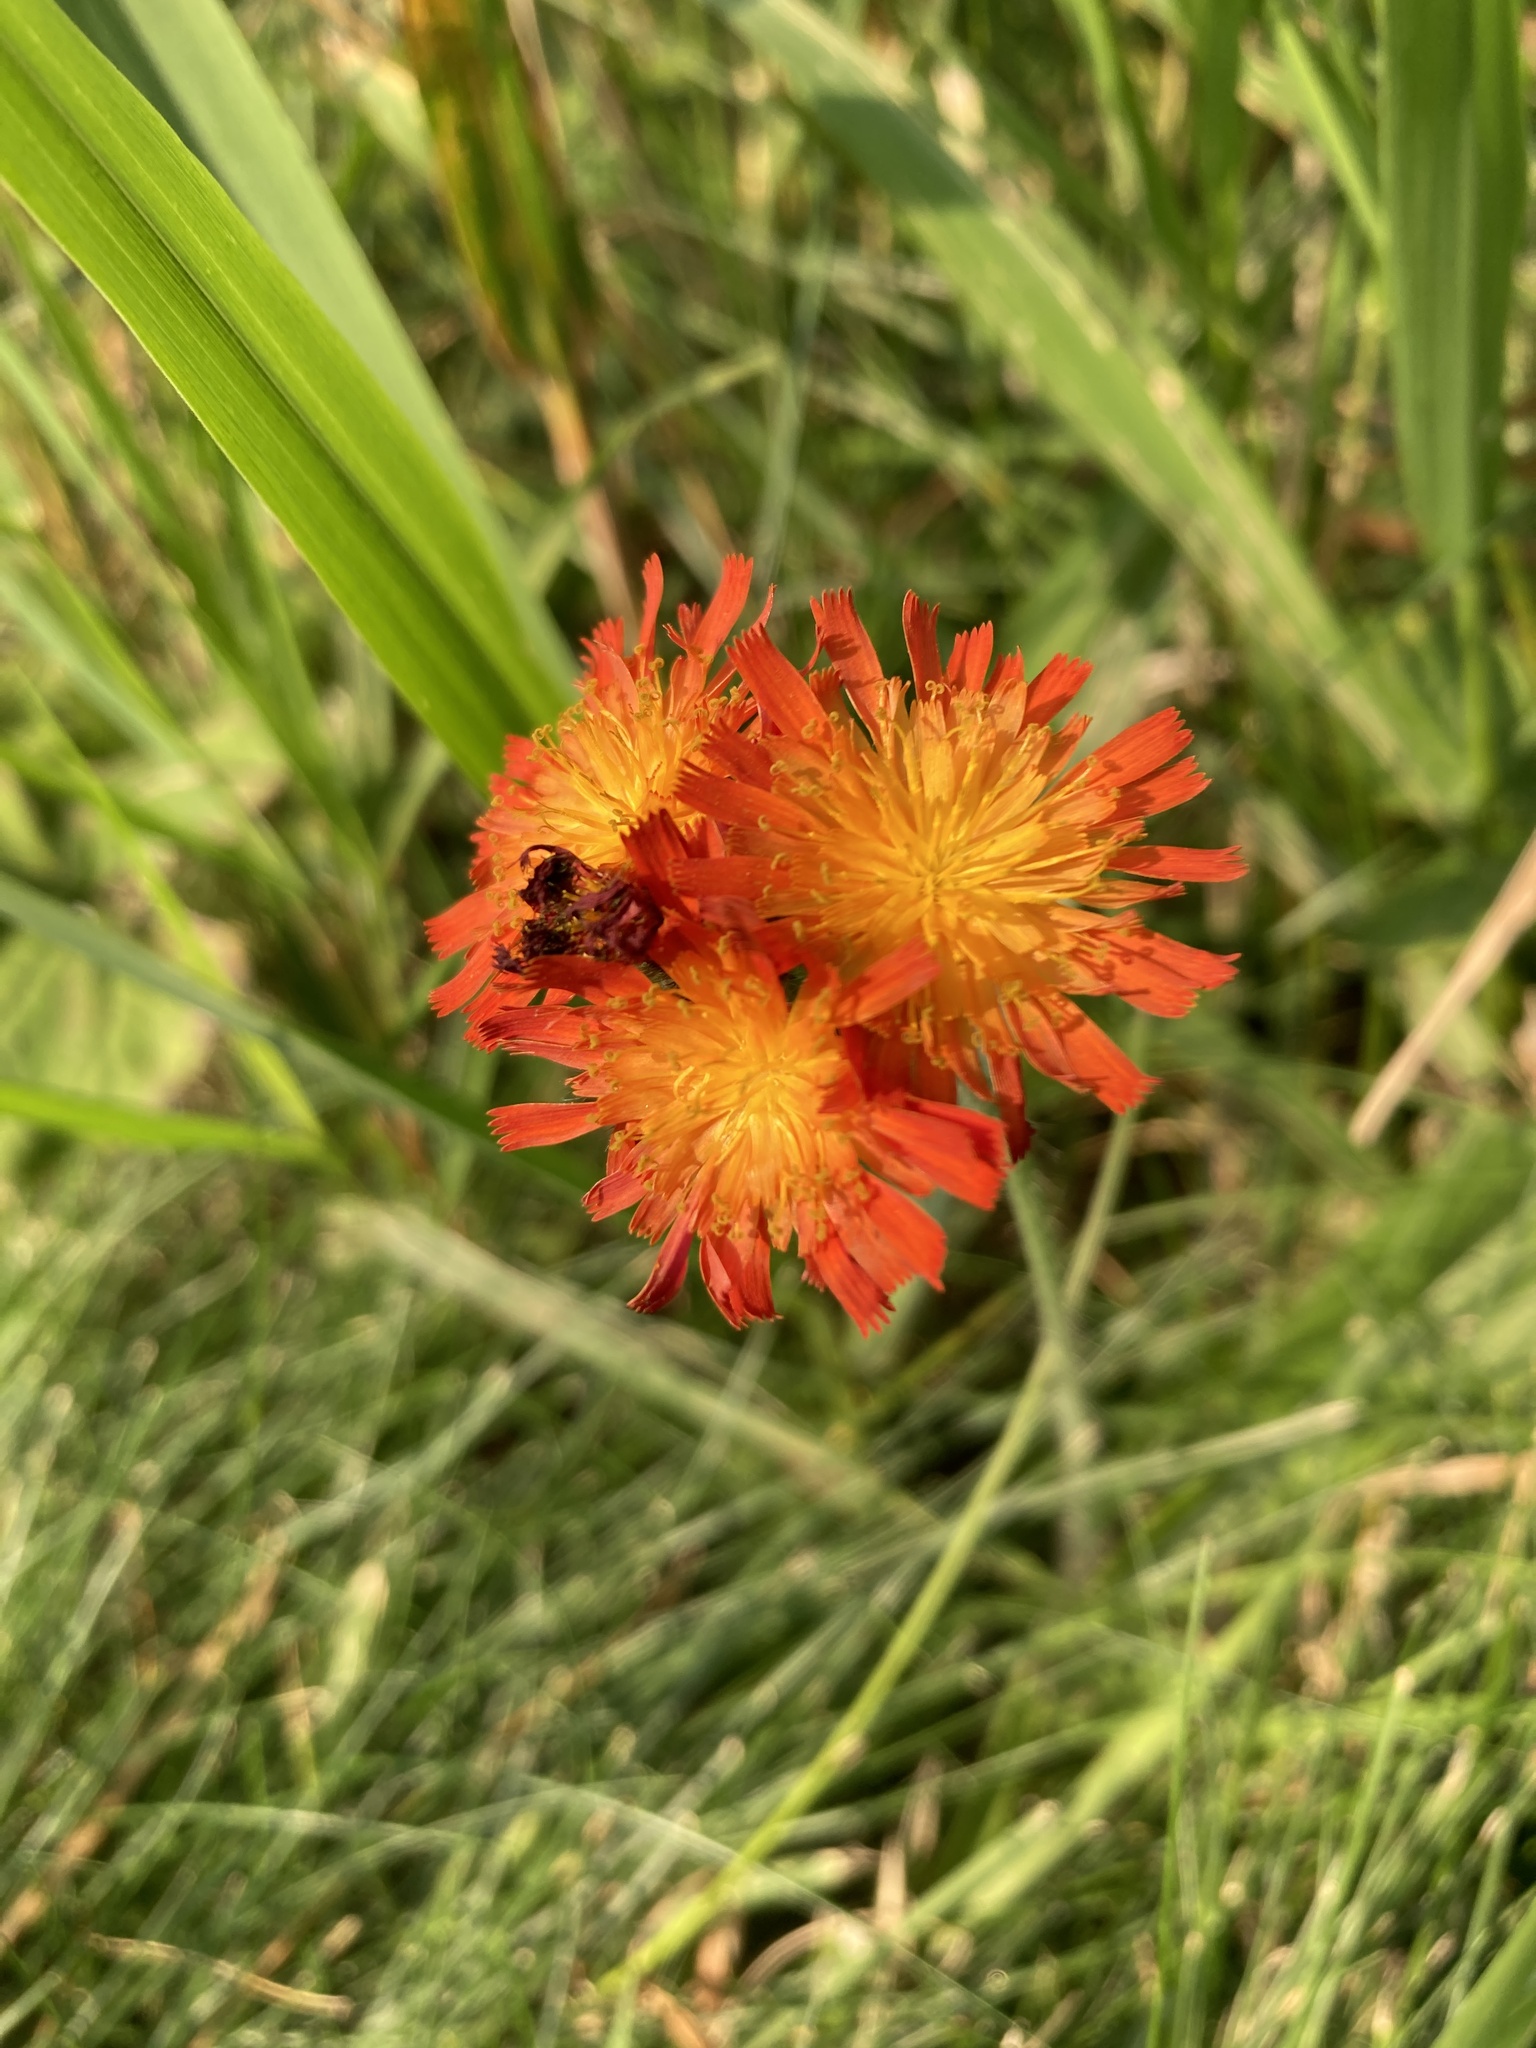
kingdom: Plantae
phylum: Tracheophyta
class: Magnoliopsida
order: Asterales
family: Asteraceae
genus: Pilosella
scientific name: Pilosella aurantiaca
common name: Fox-and-cubs
